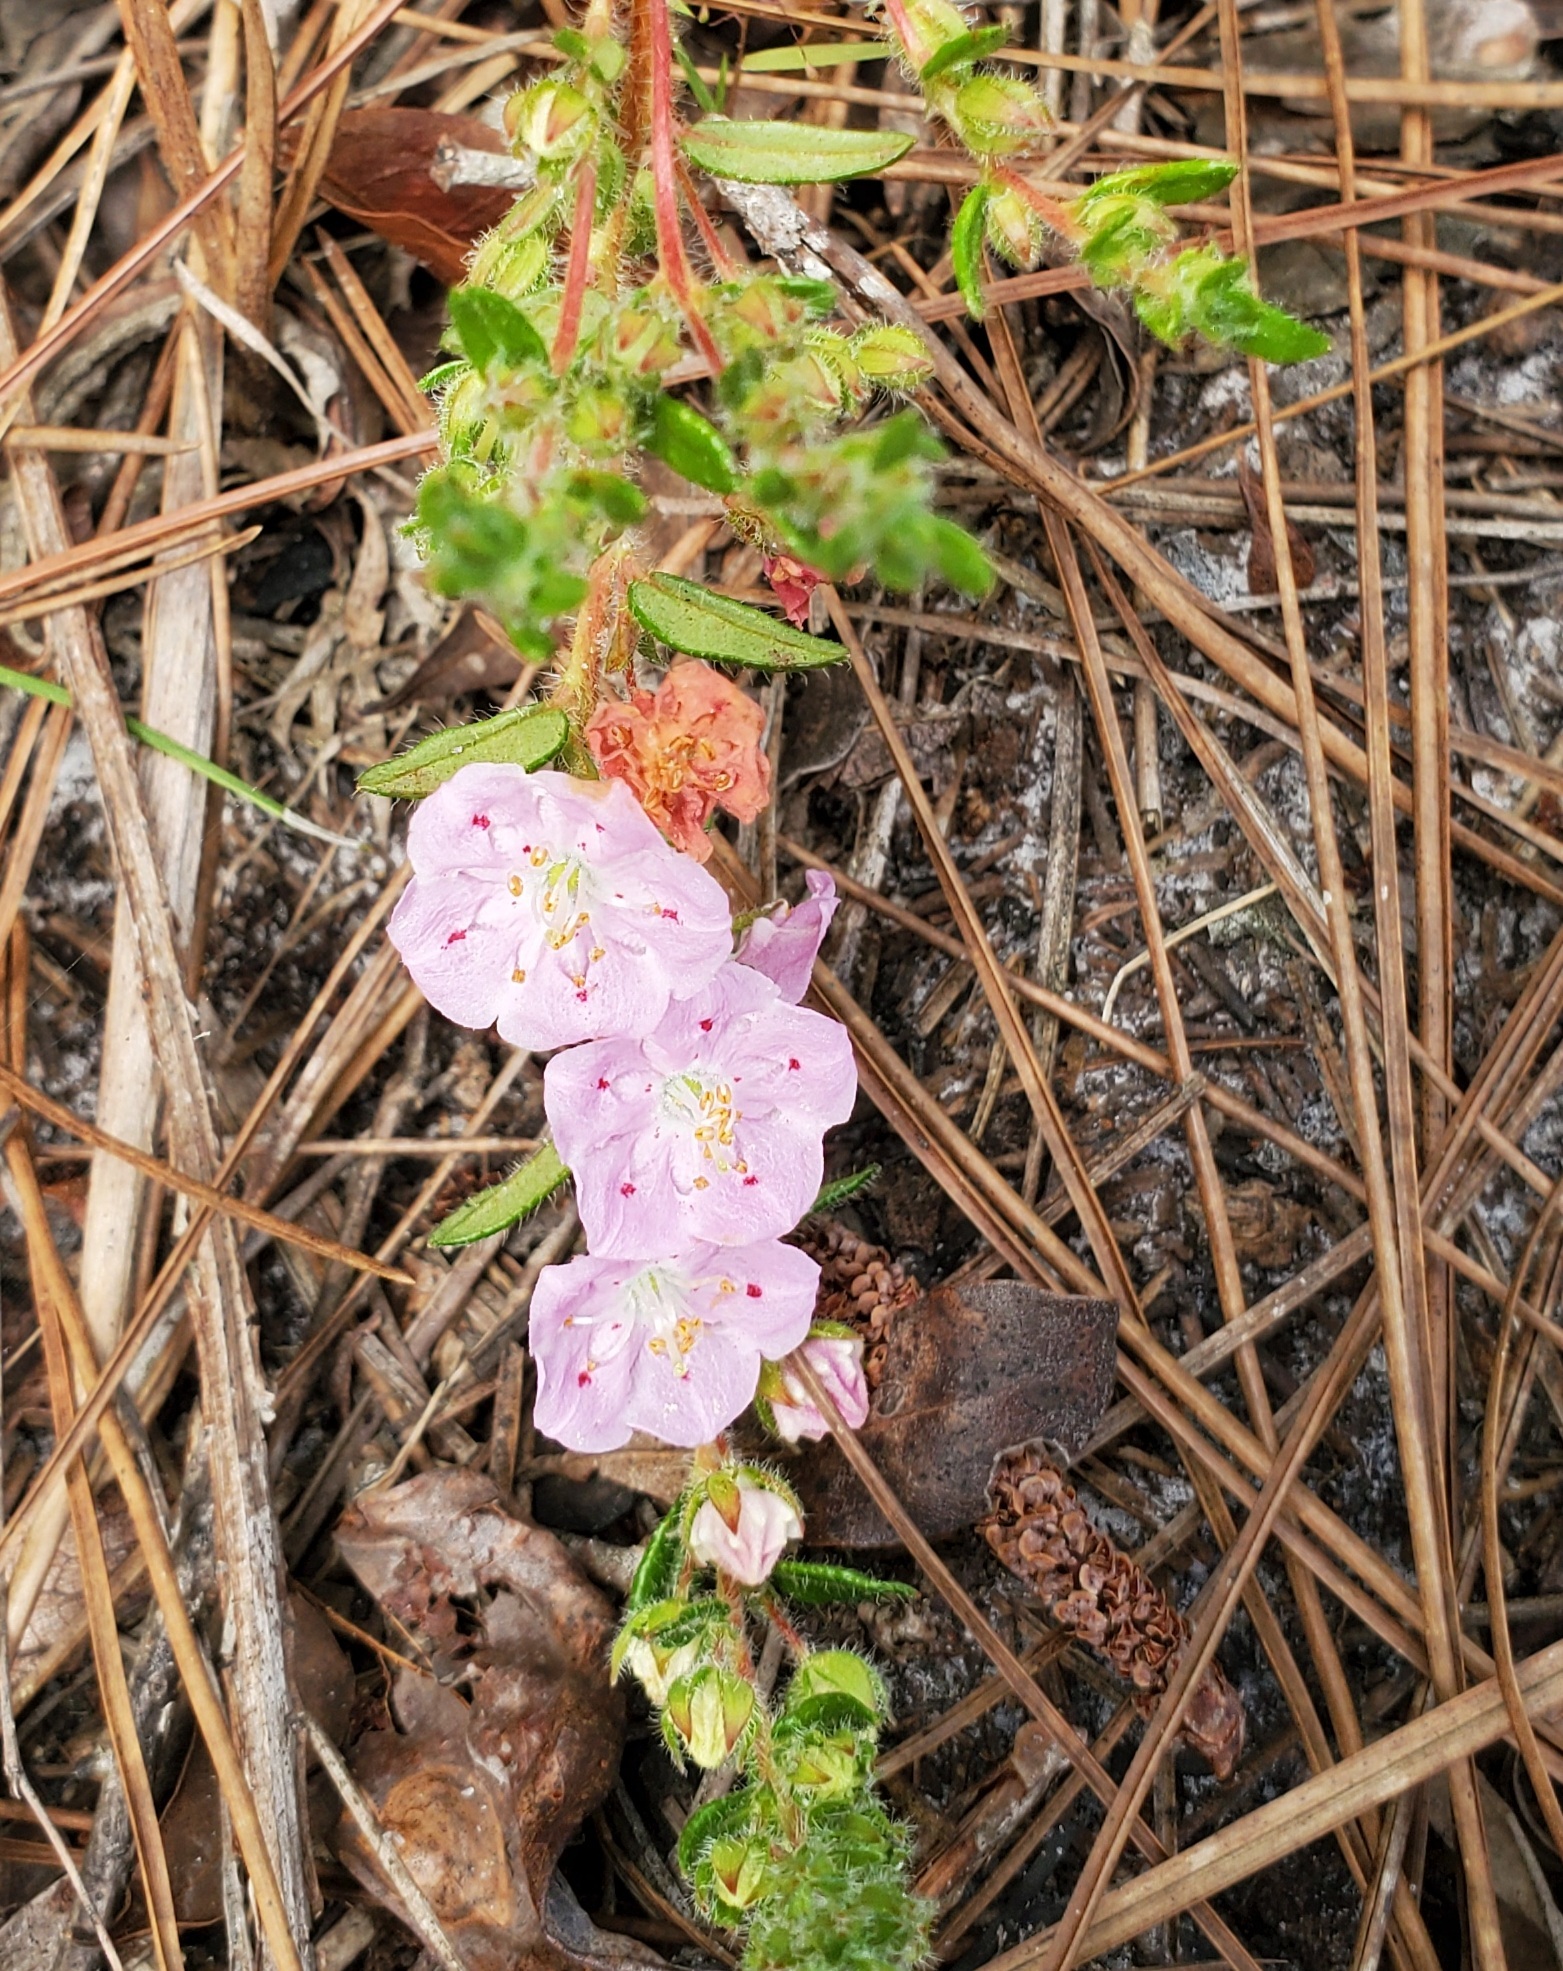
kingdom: Plantae
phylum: Tracheophyta
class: Magnoliopsida
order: Ericales
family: Ericaceae
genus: Kalmia
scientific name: Kalmia hirsuta
